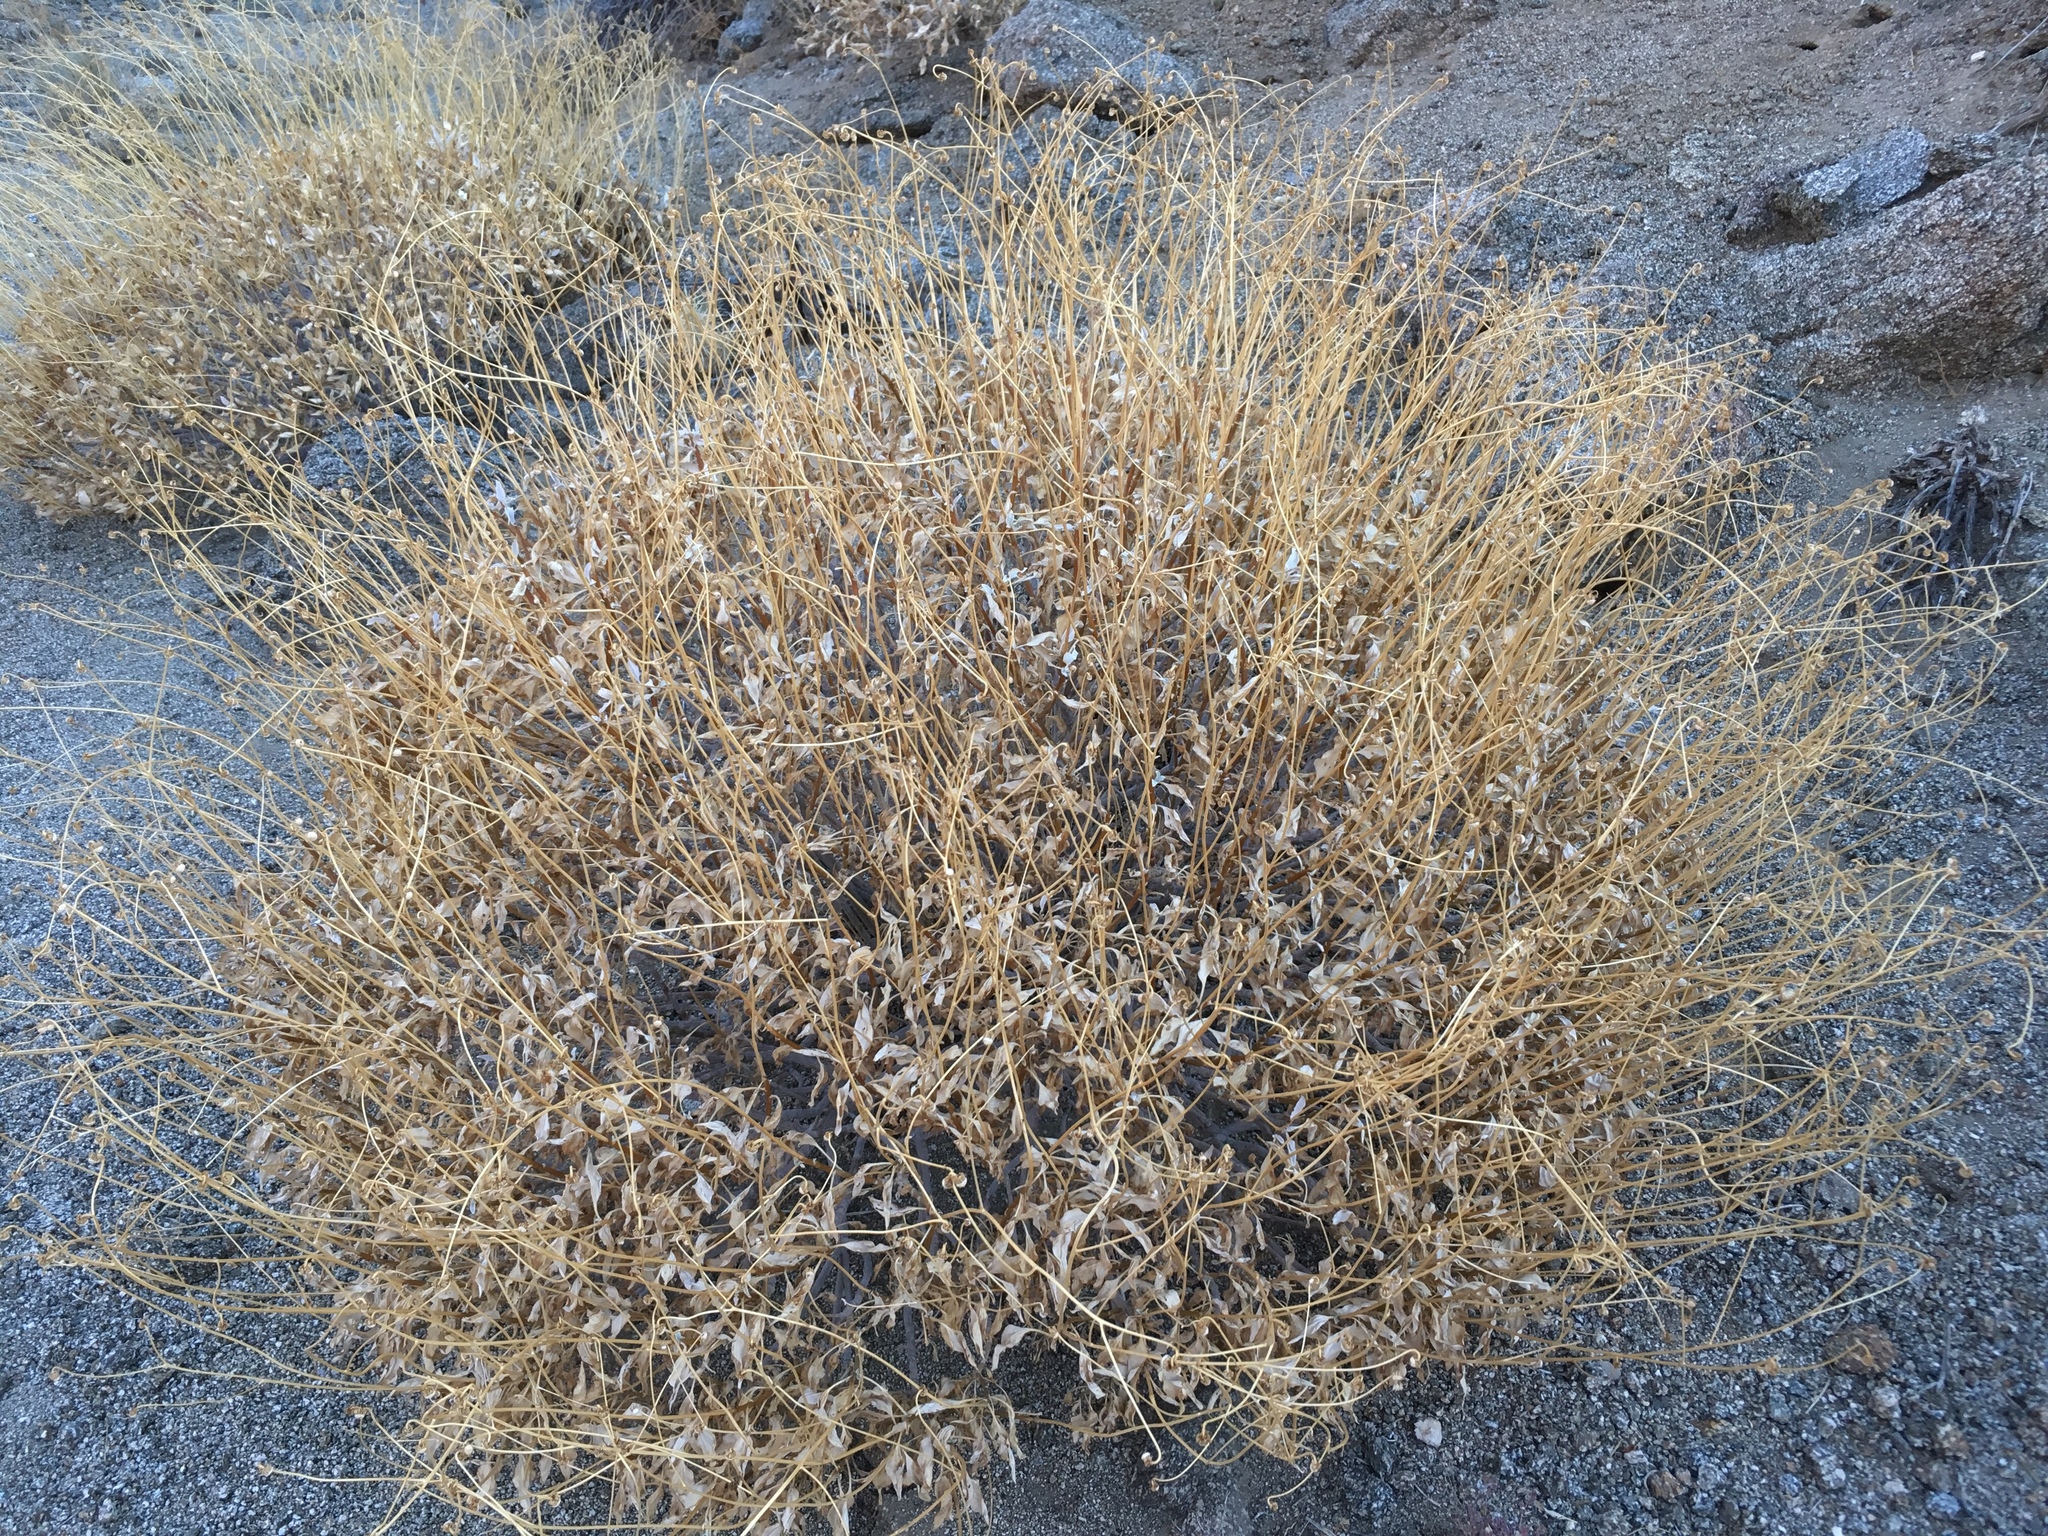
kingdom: Plantae
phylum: Tracheophyta
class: Magnoliopsida
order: Asterales
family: Asteraceae
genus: Encelia
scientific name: Encelia farinosa
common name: Brittlebush
